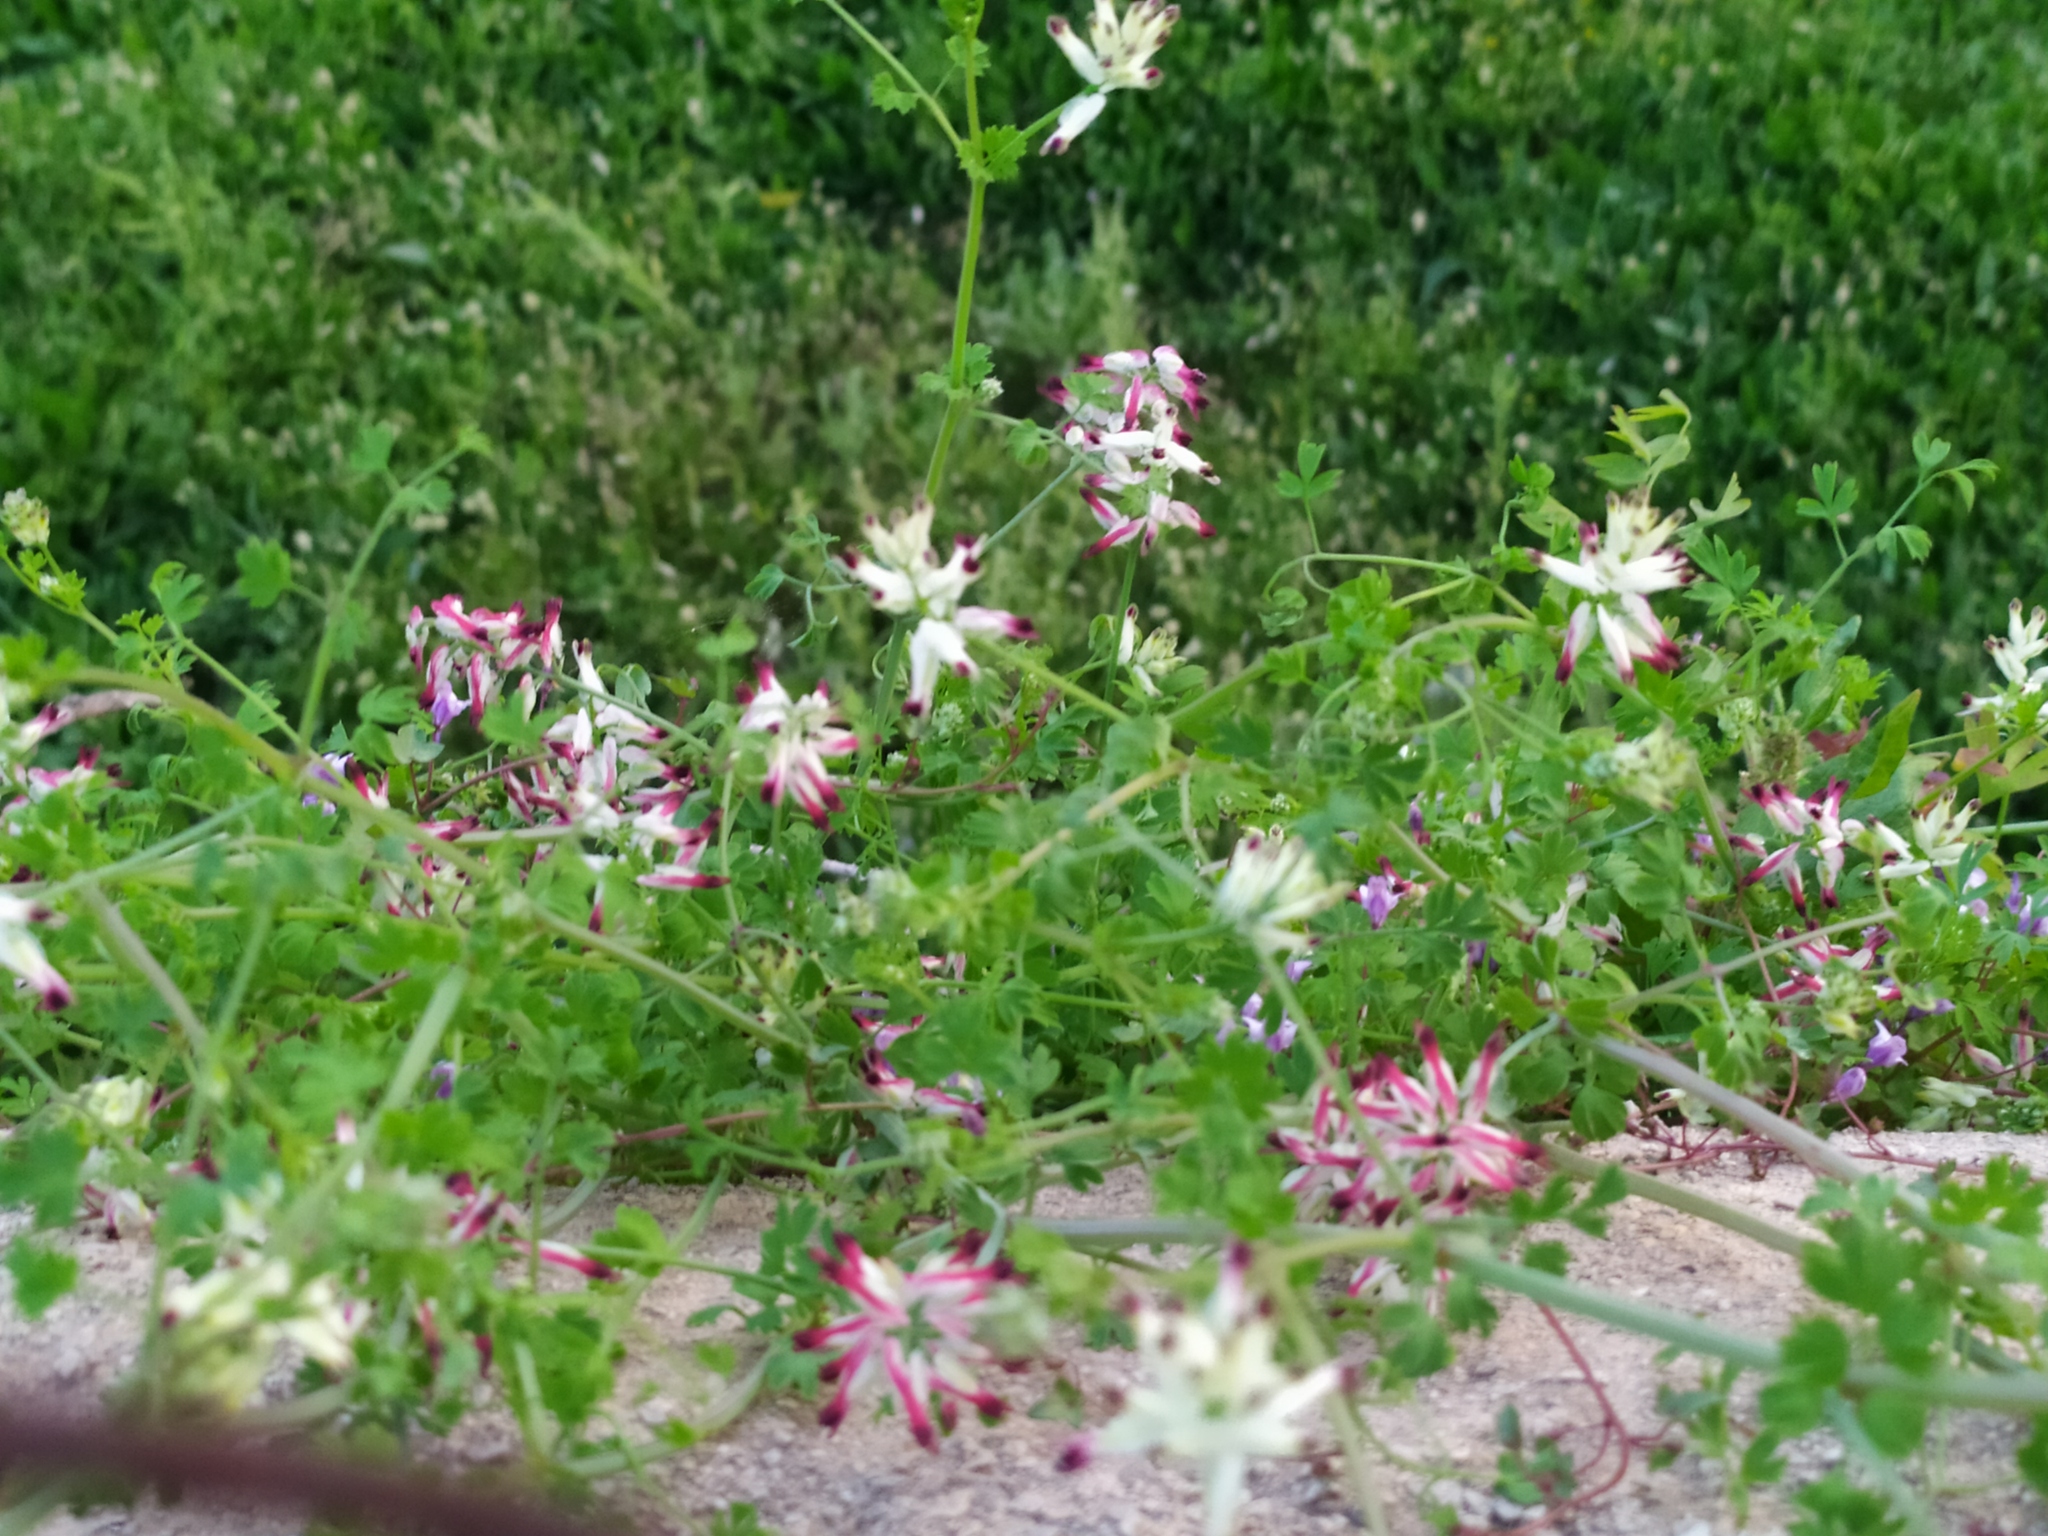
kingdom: Plantae
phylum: Tracheophyta
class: Magnoliopsida
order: Ranunculales
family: Papaveraceae
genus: Fumaria
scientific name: Fumaria capreolata
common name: White ramping-fumitory
